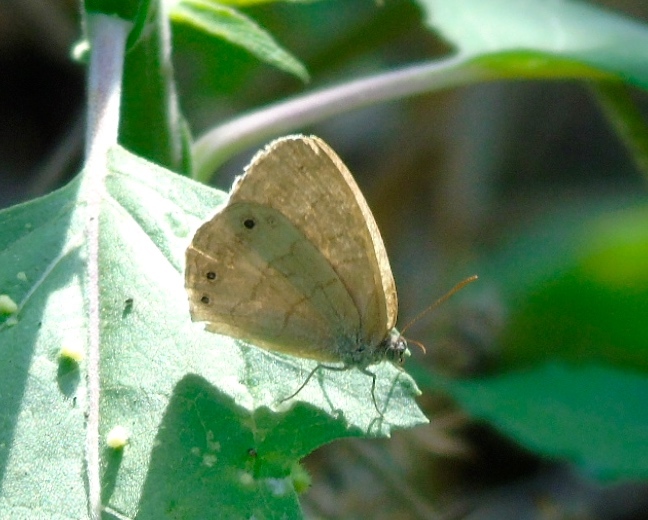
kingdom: Animalia
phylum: Arthropoda
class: Insecta
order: Lepidoptera
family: Nymphalidae
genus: Hermeuptychia
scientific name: Hermeuptychia
